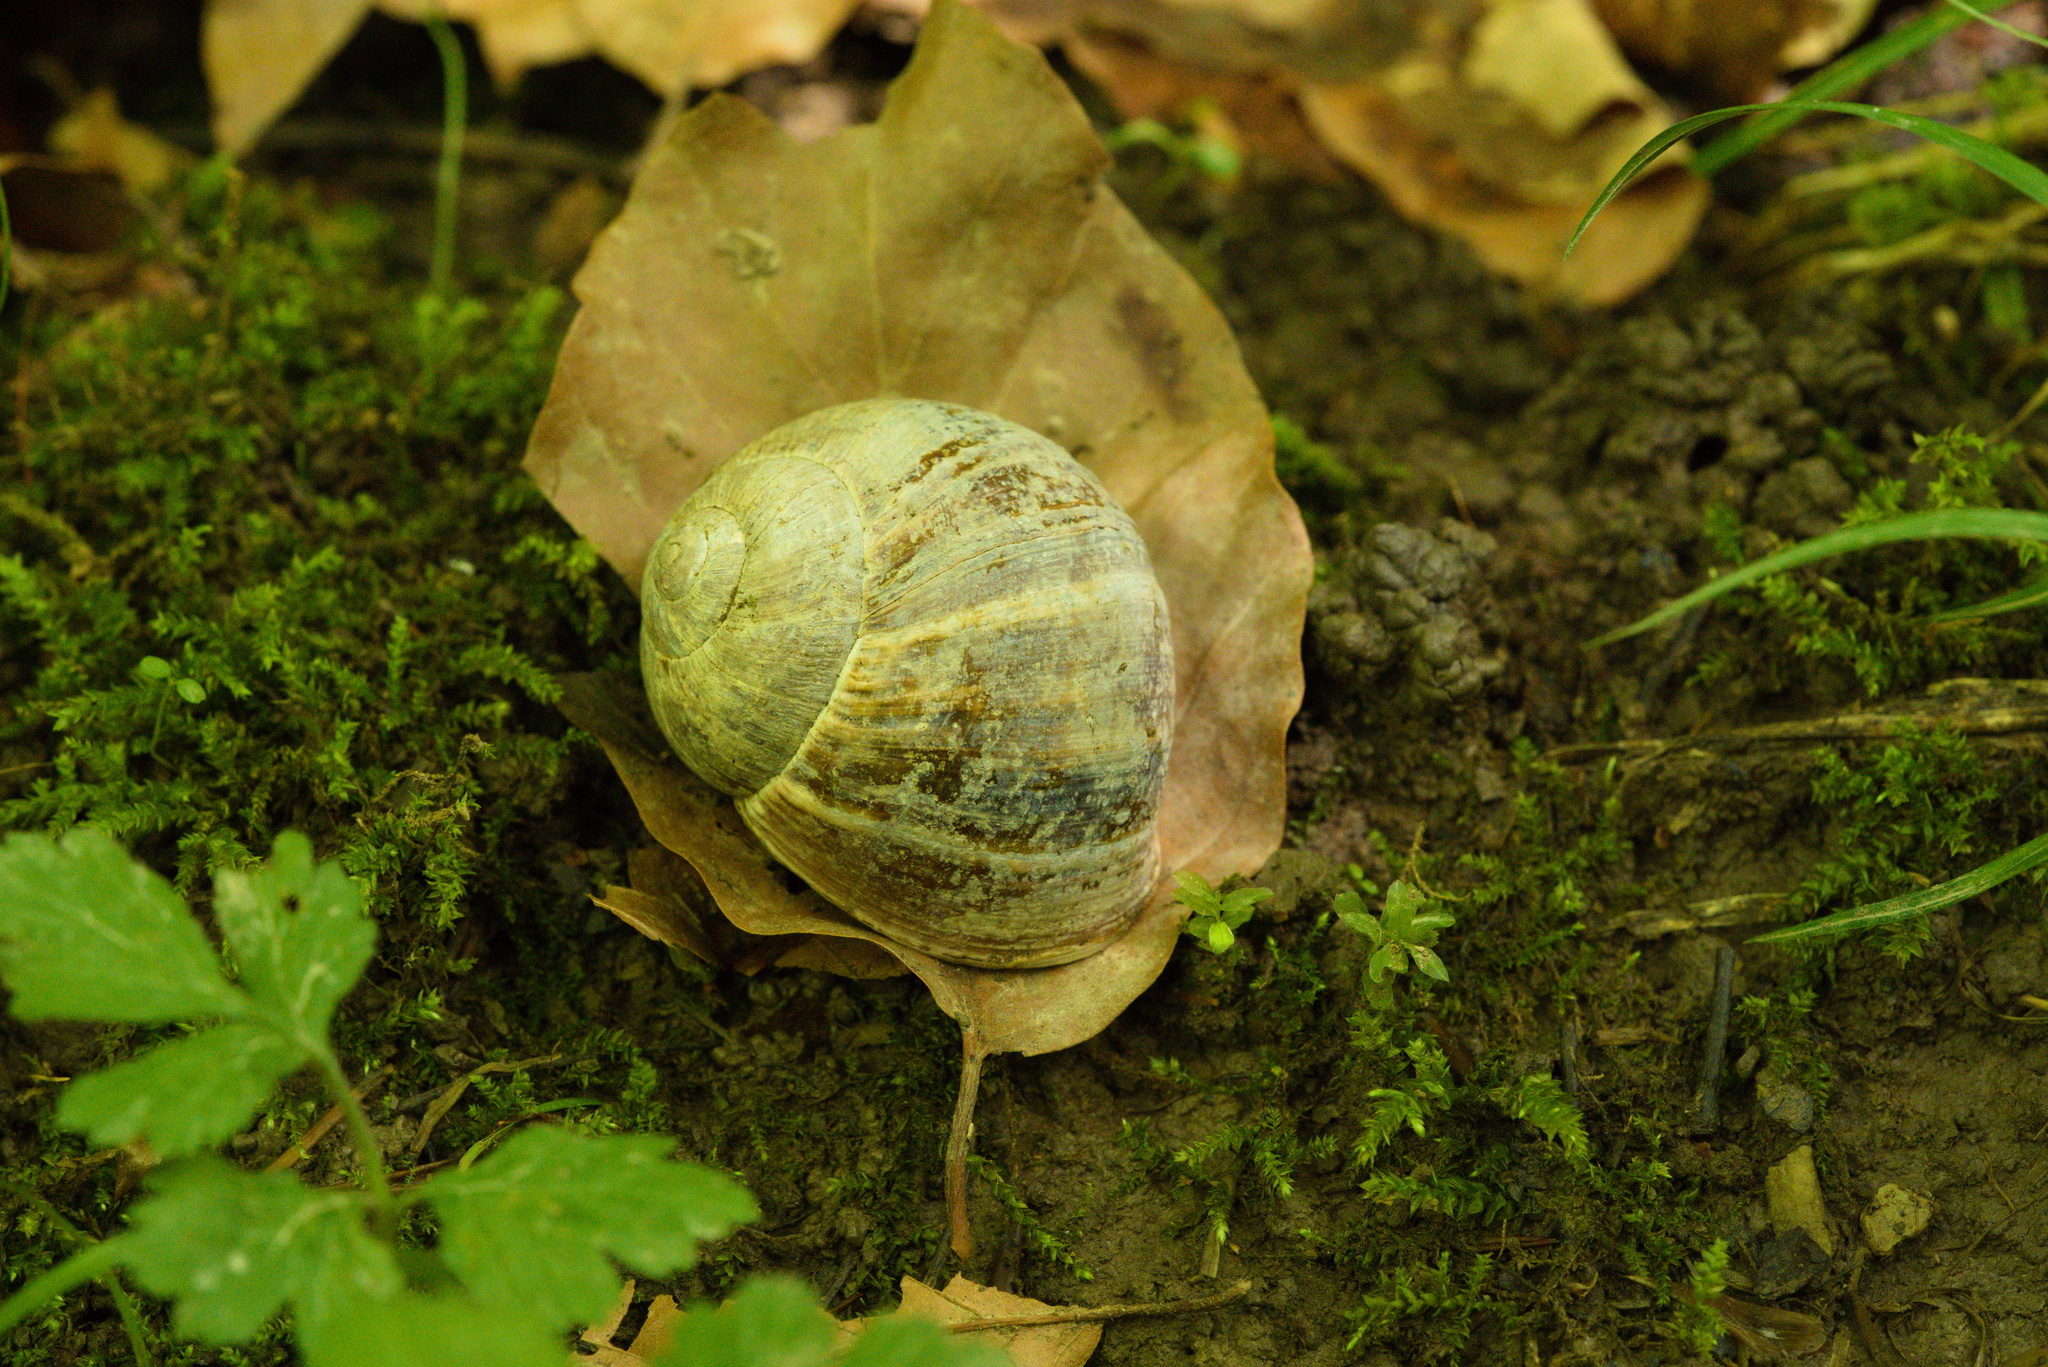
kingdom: Animalia
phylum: Mollusca
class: Gastropoda
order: Stylommatophora
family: Helicidae
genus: Helix
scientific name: Helix pomatia
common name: Roman snail
